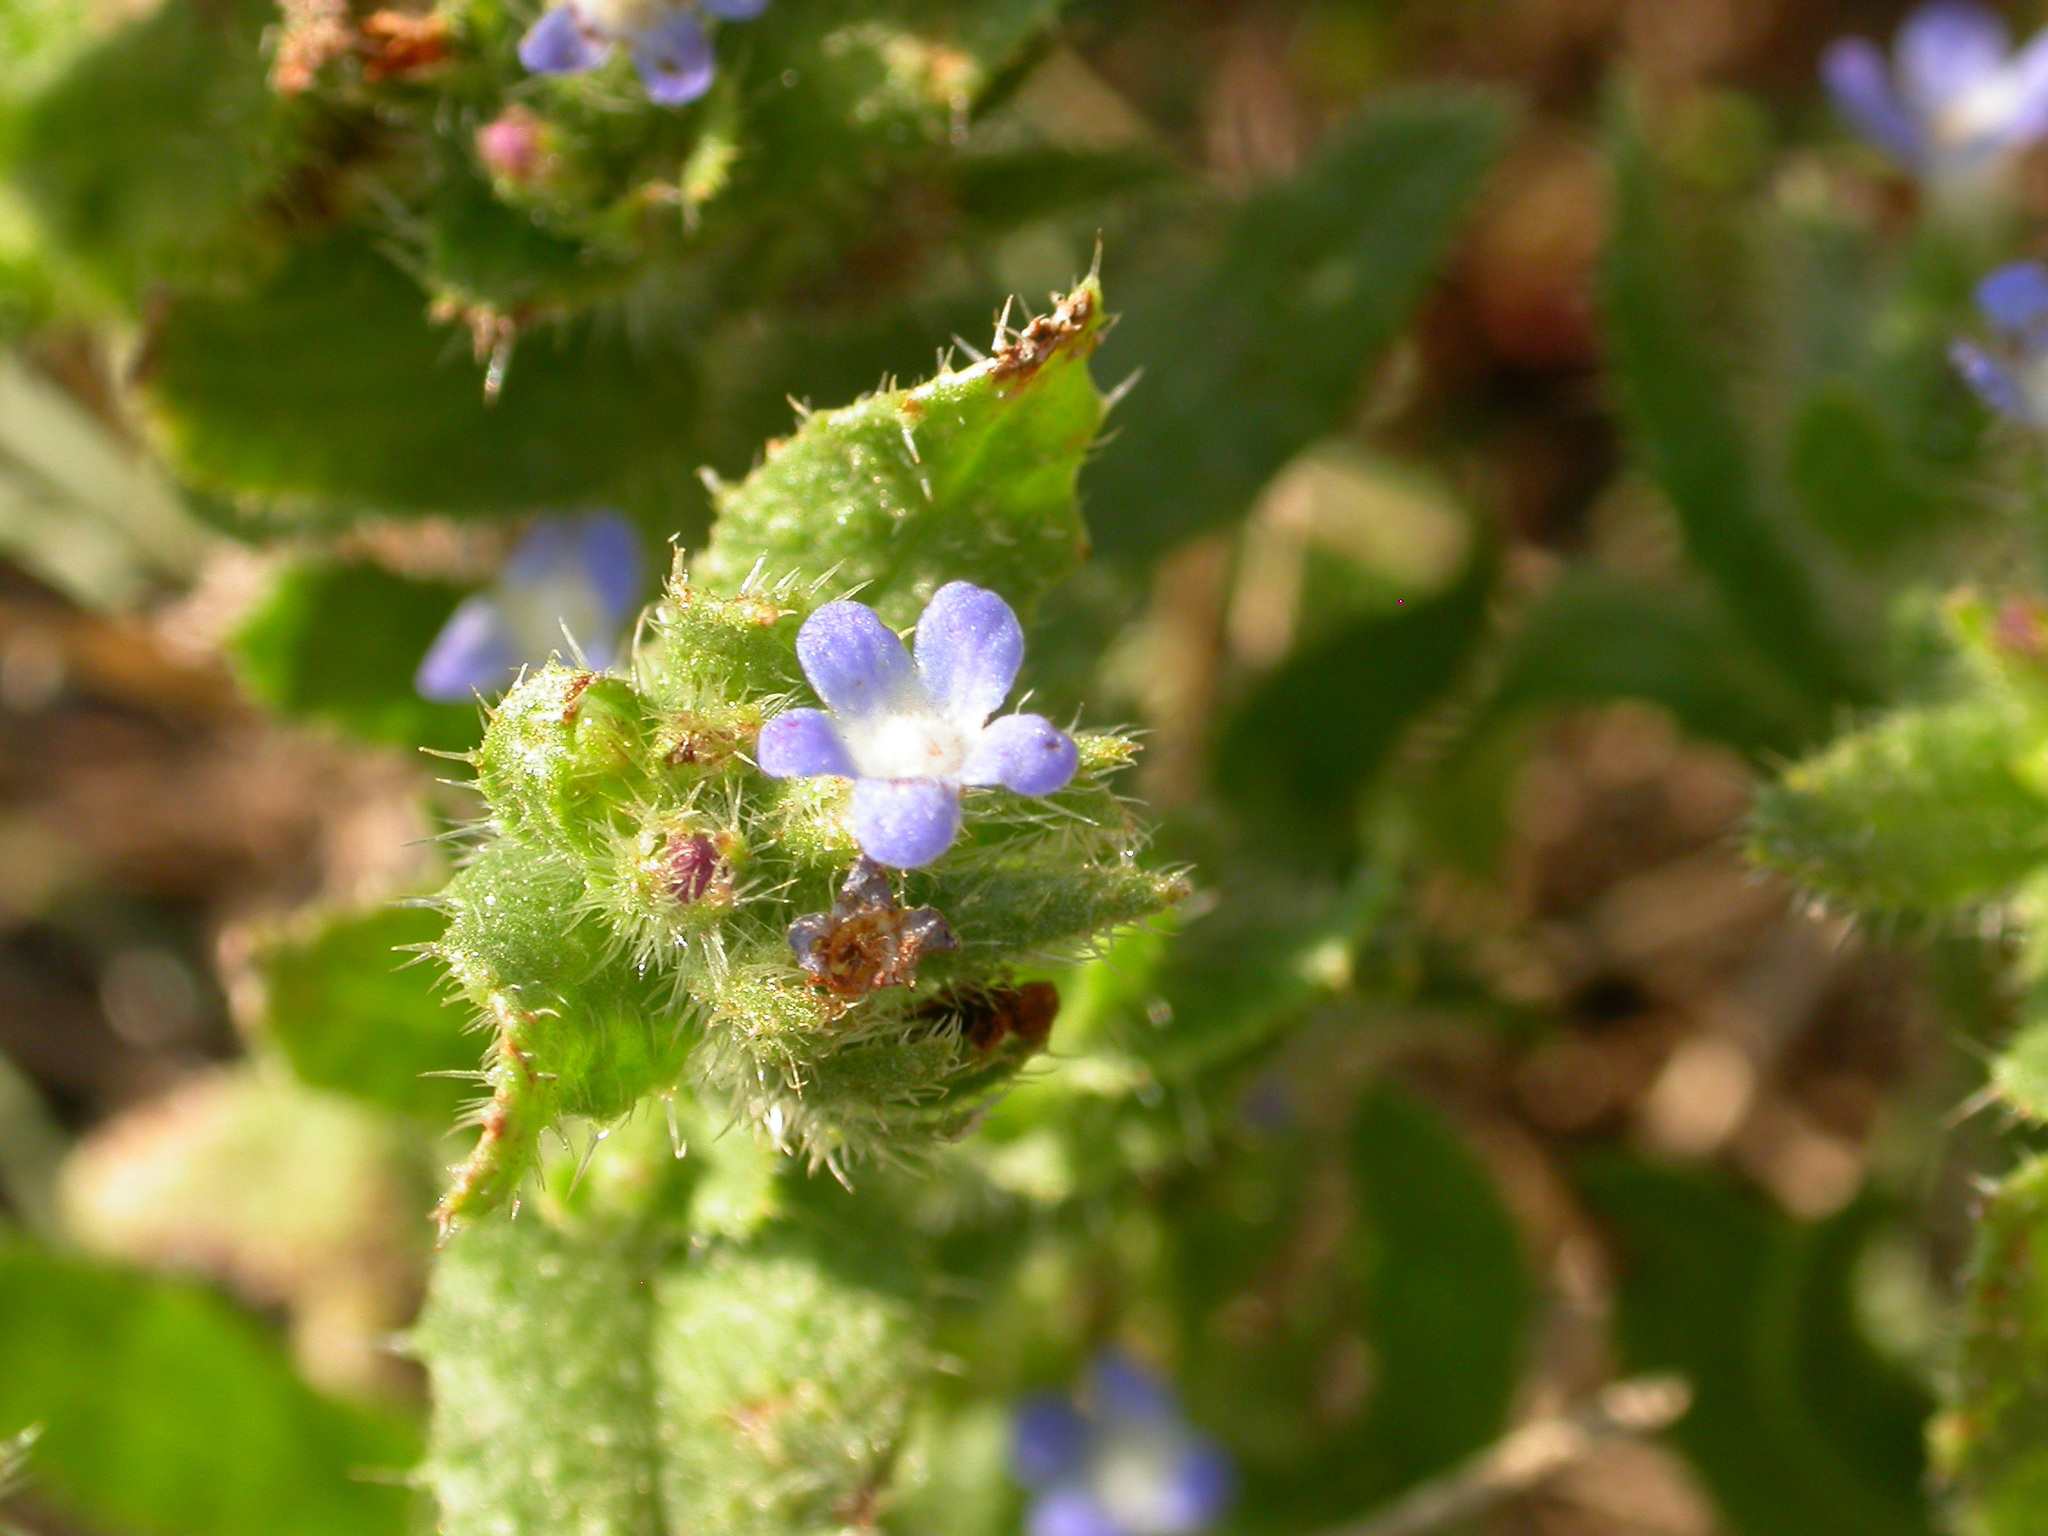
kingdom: Plantae
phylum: Tracheophyta
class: Magnoliopsida
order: Boraginales
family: Boraginaceae
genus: Lycopsis
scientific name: Lycopsis arvensis
